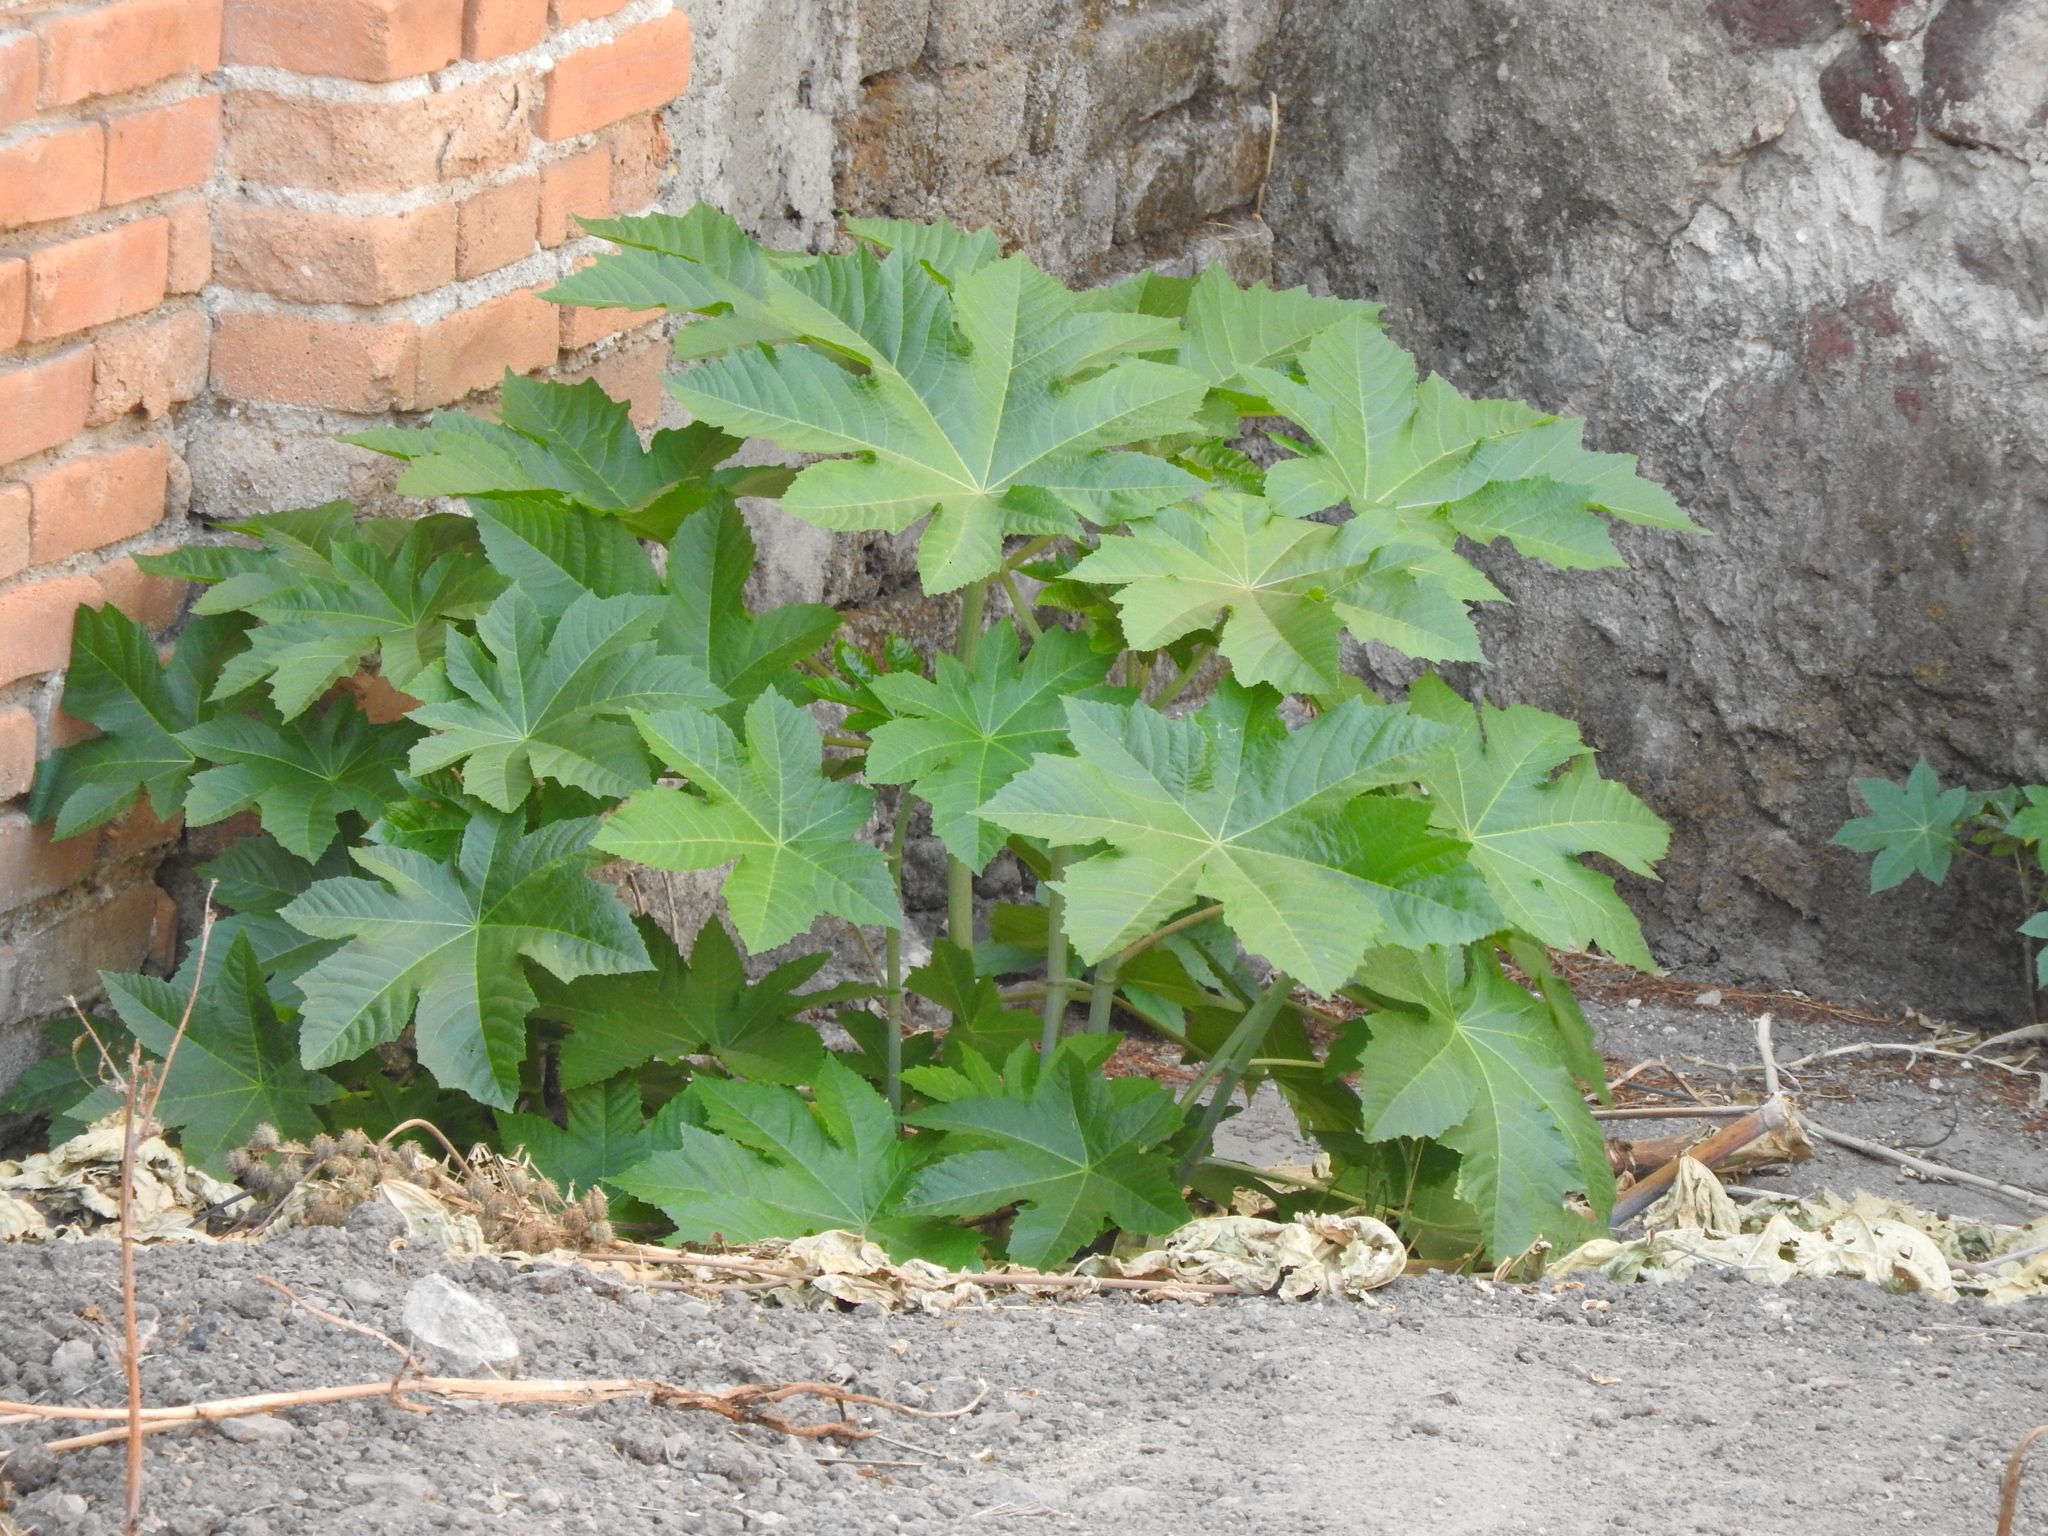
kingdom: Plantae
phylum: Tracheophyta
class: Magnoliopsida
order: Malpighiales
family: Euphorbiaceae
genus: Ricinus
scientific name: Ricinus communis
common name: Castor-oil-plant
